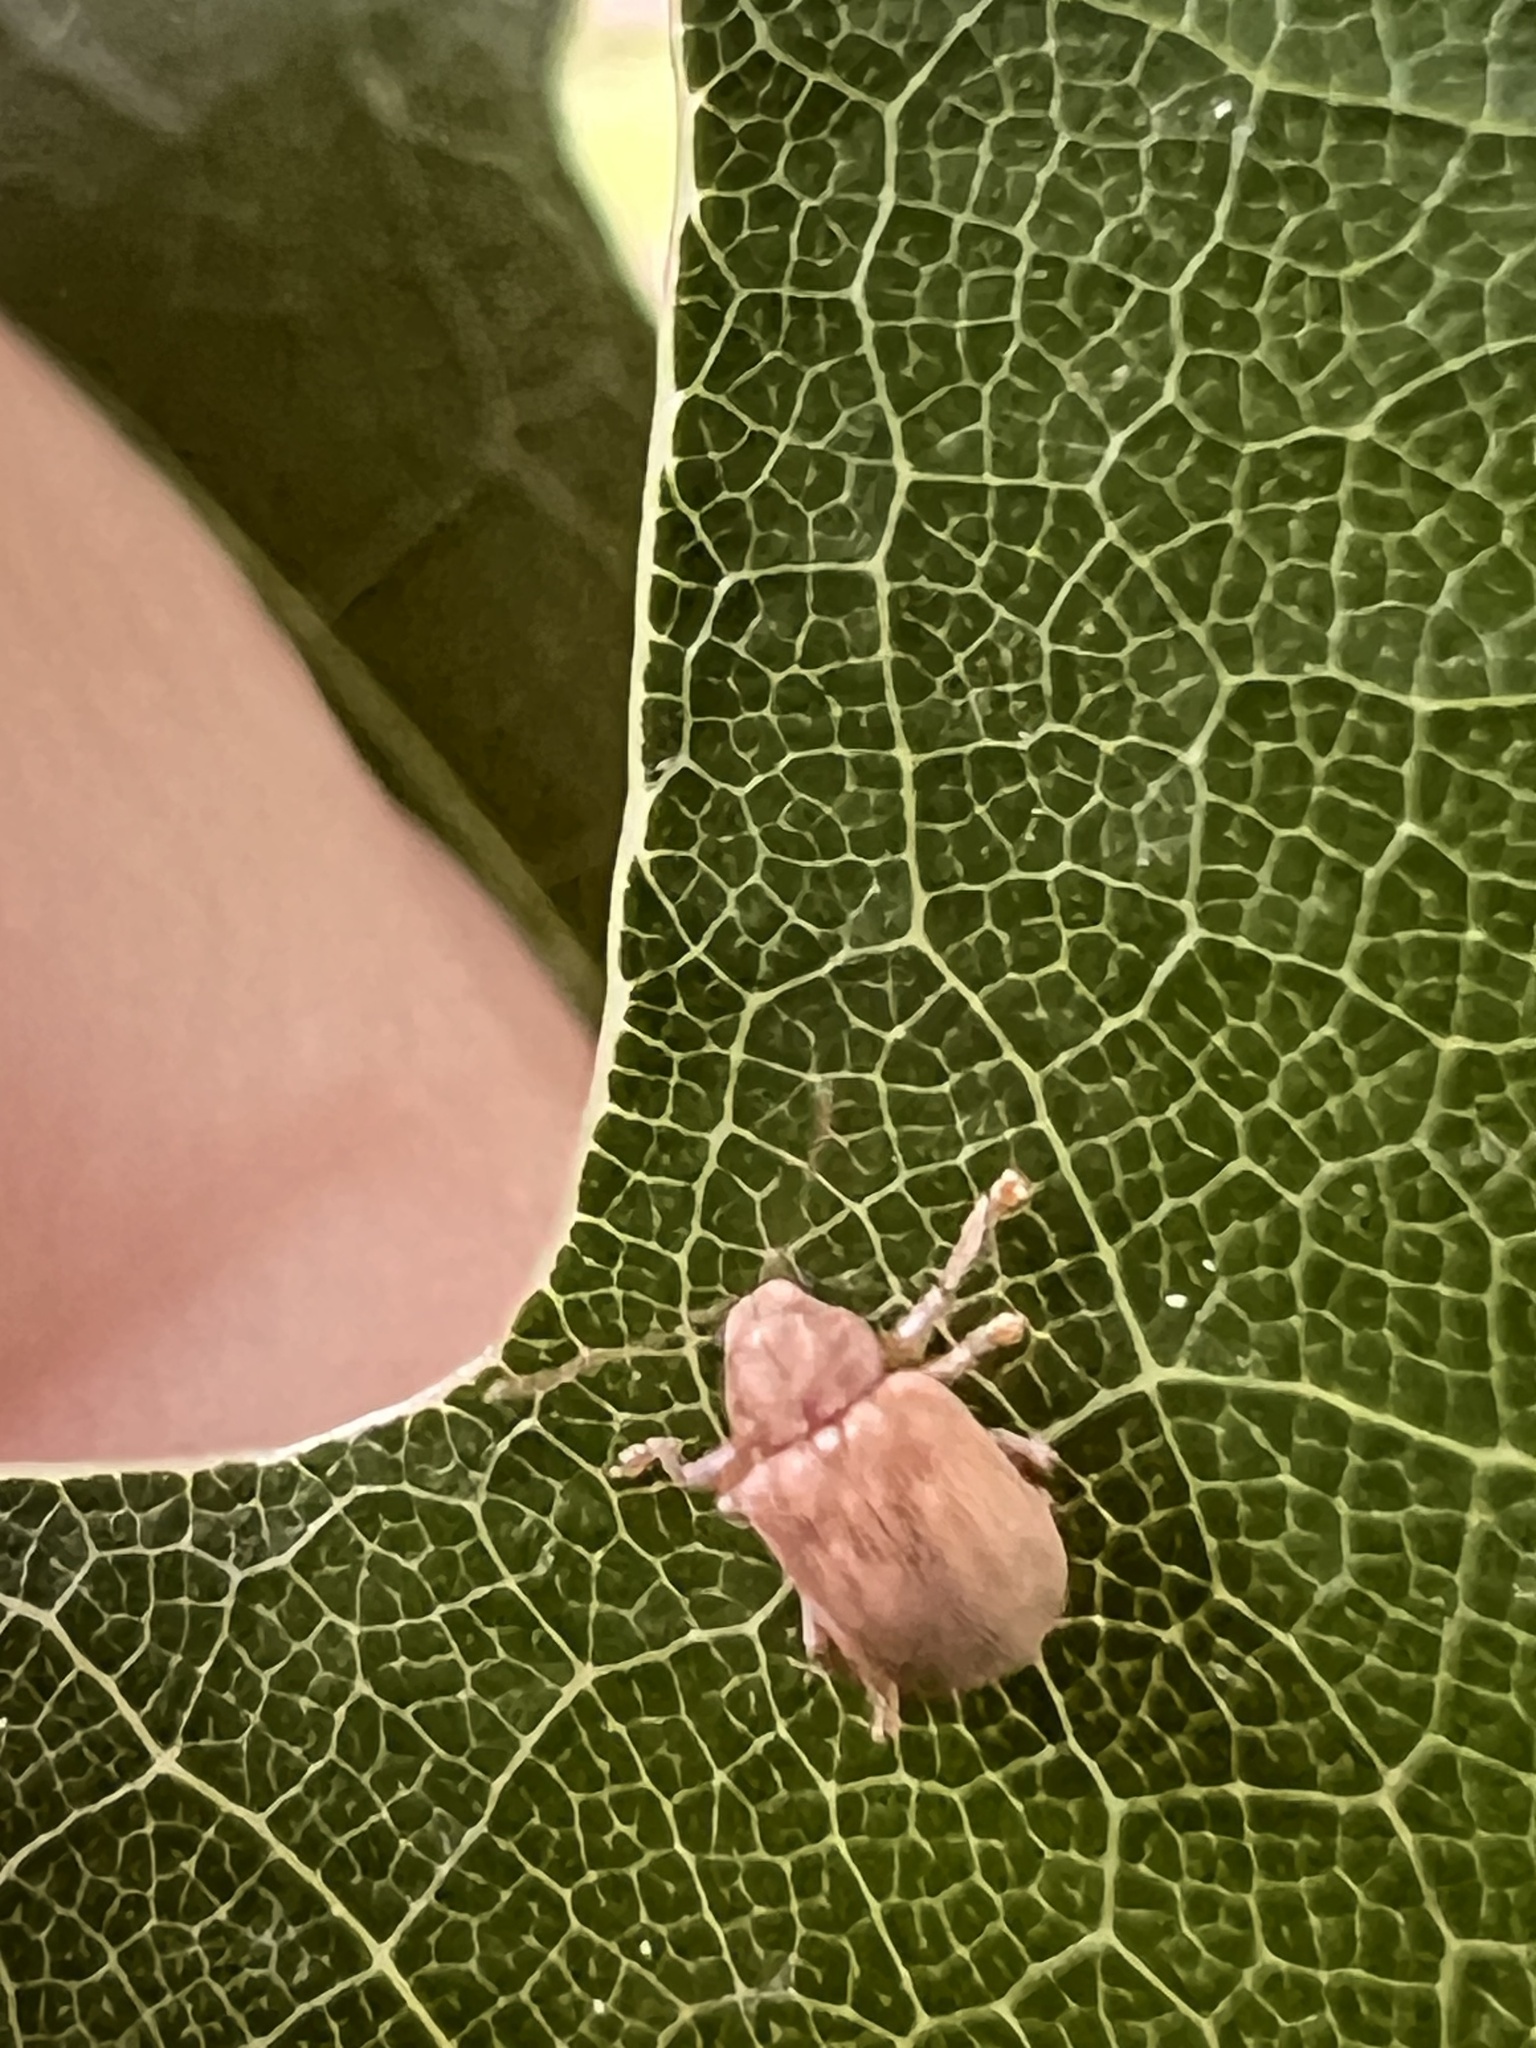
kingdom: Animalia
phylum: Arthropoda
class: Insecta
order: Coleoptera
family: Chrysomelidae
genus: Demotina
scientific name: Demotina modesta
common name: Leaf beetle
